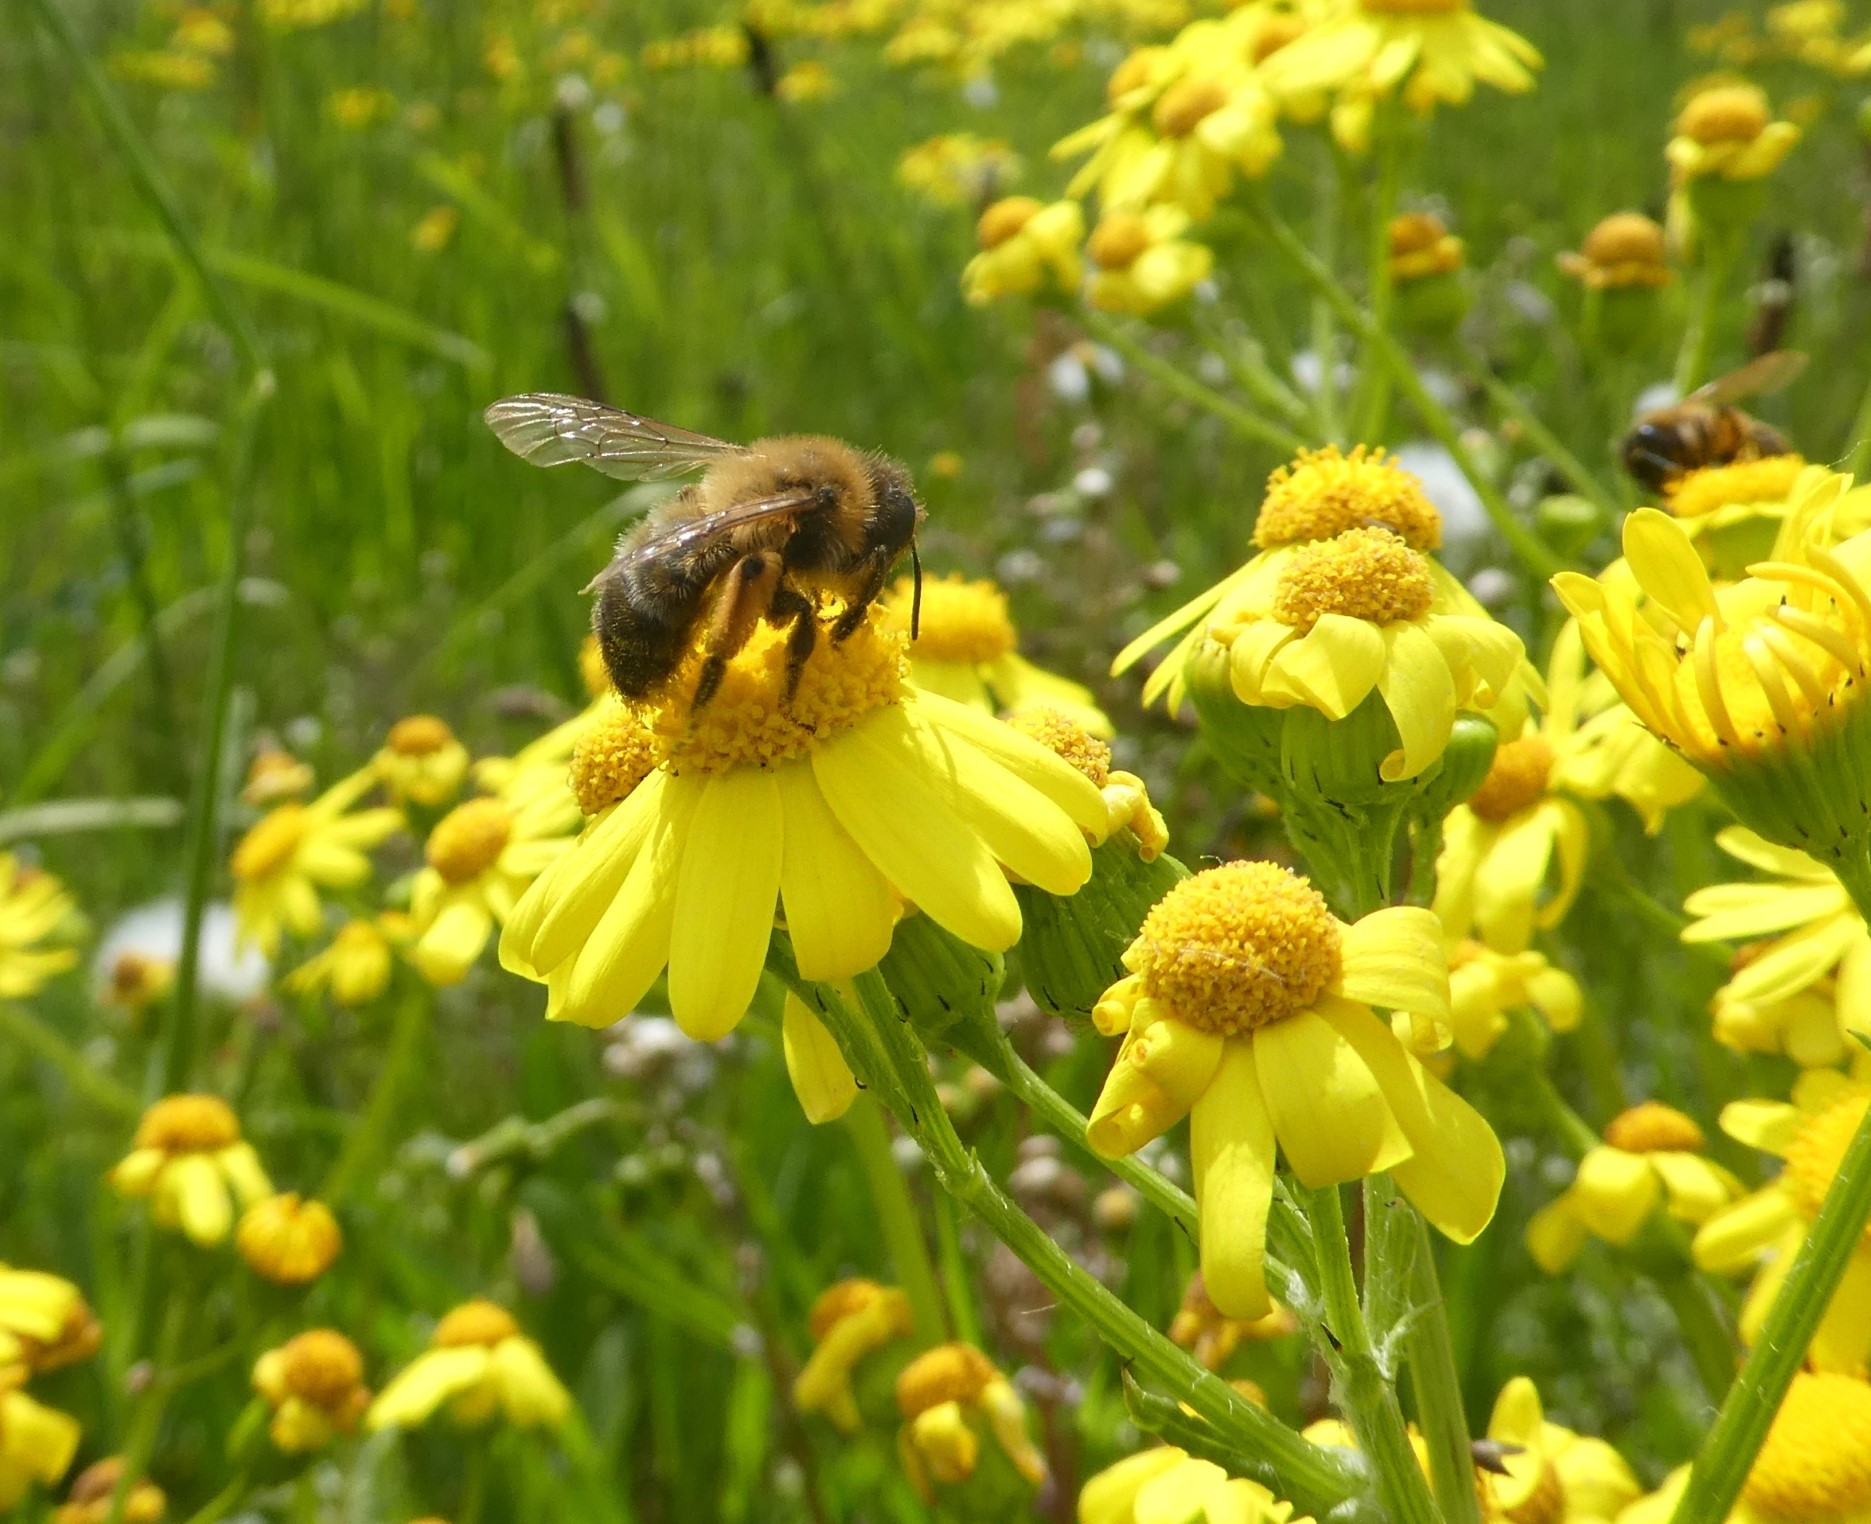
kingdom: Animalia
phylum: Arthropoda
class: Insecta
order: Hymenoptera
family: Andrenidae
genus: Andrena
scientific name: Andrena nigroaenea
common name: Buffish mining bee
